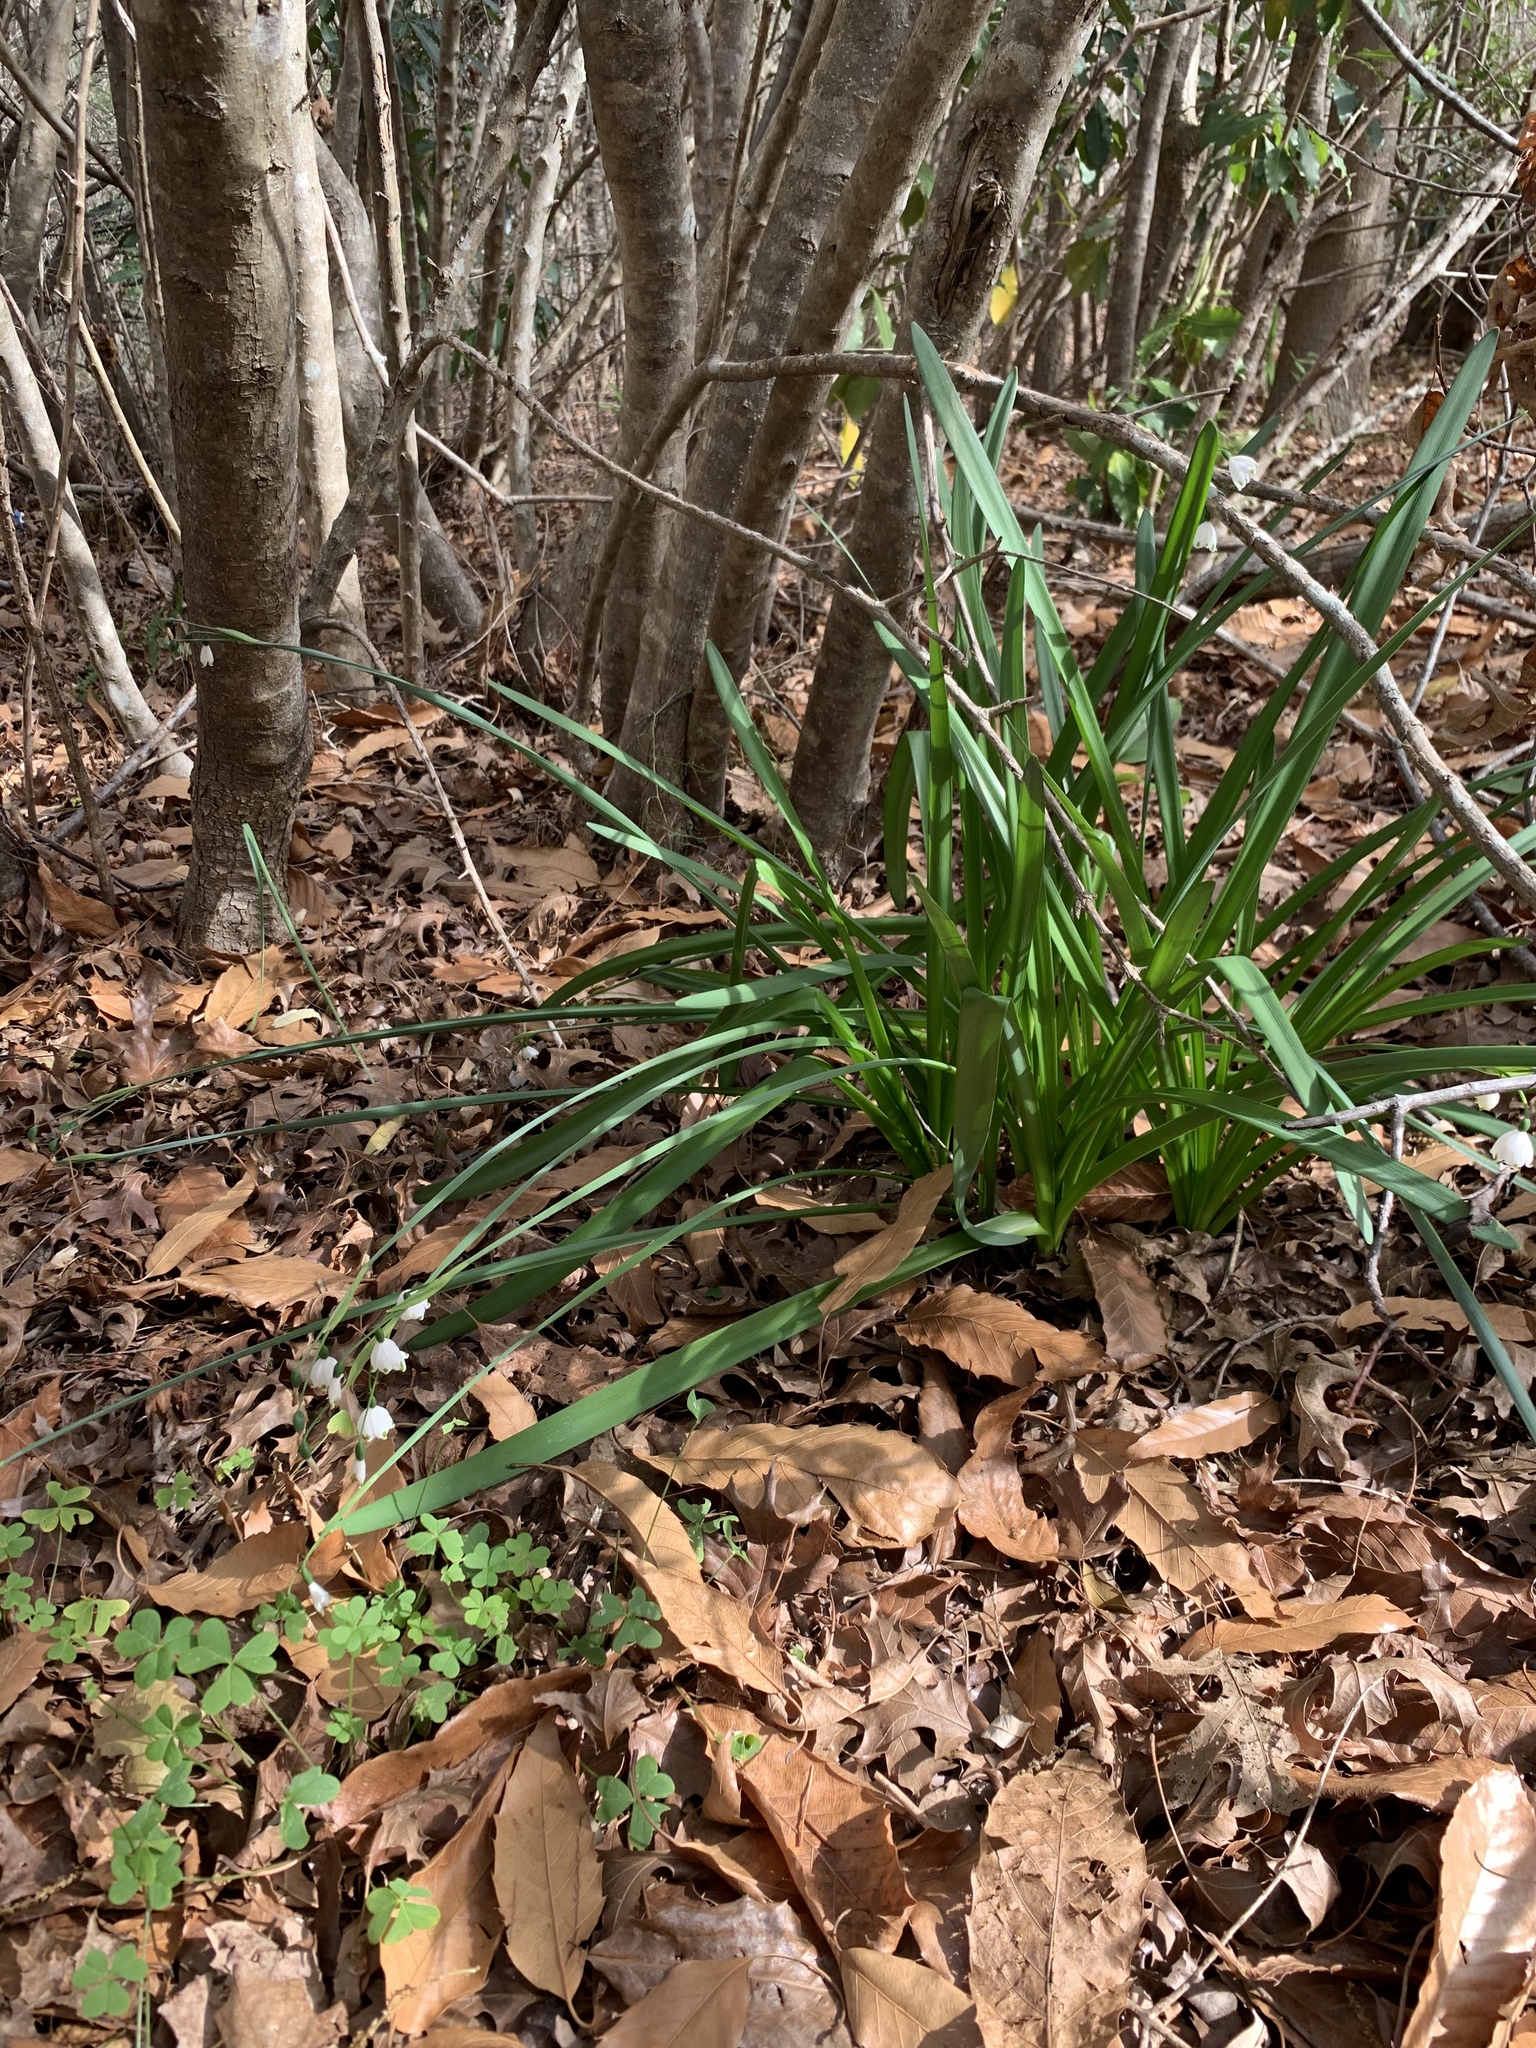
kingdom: Plantae
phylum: Tracheophyta
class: Liliopsida
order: Asparagales
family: Amaryllidaceae
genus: Leucojum
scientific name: Leucojum aestivum
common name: Summer snowflake
